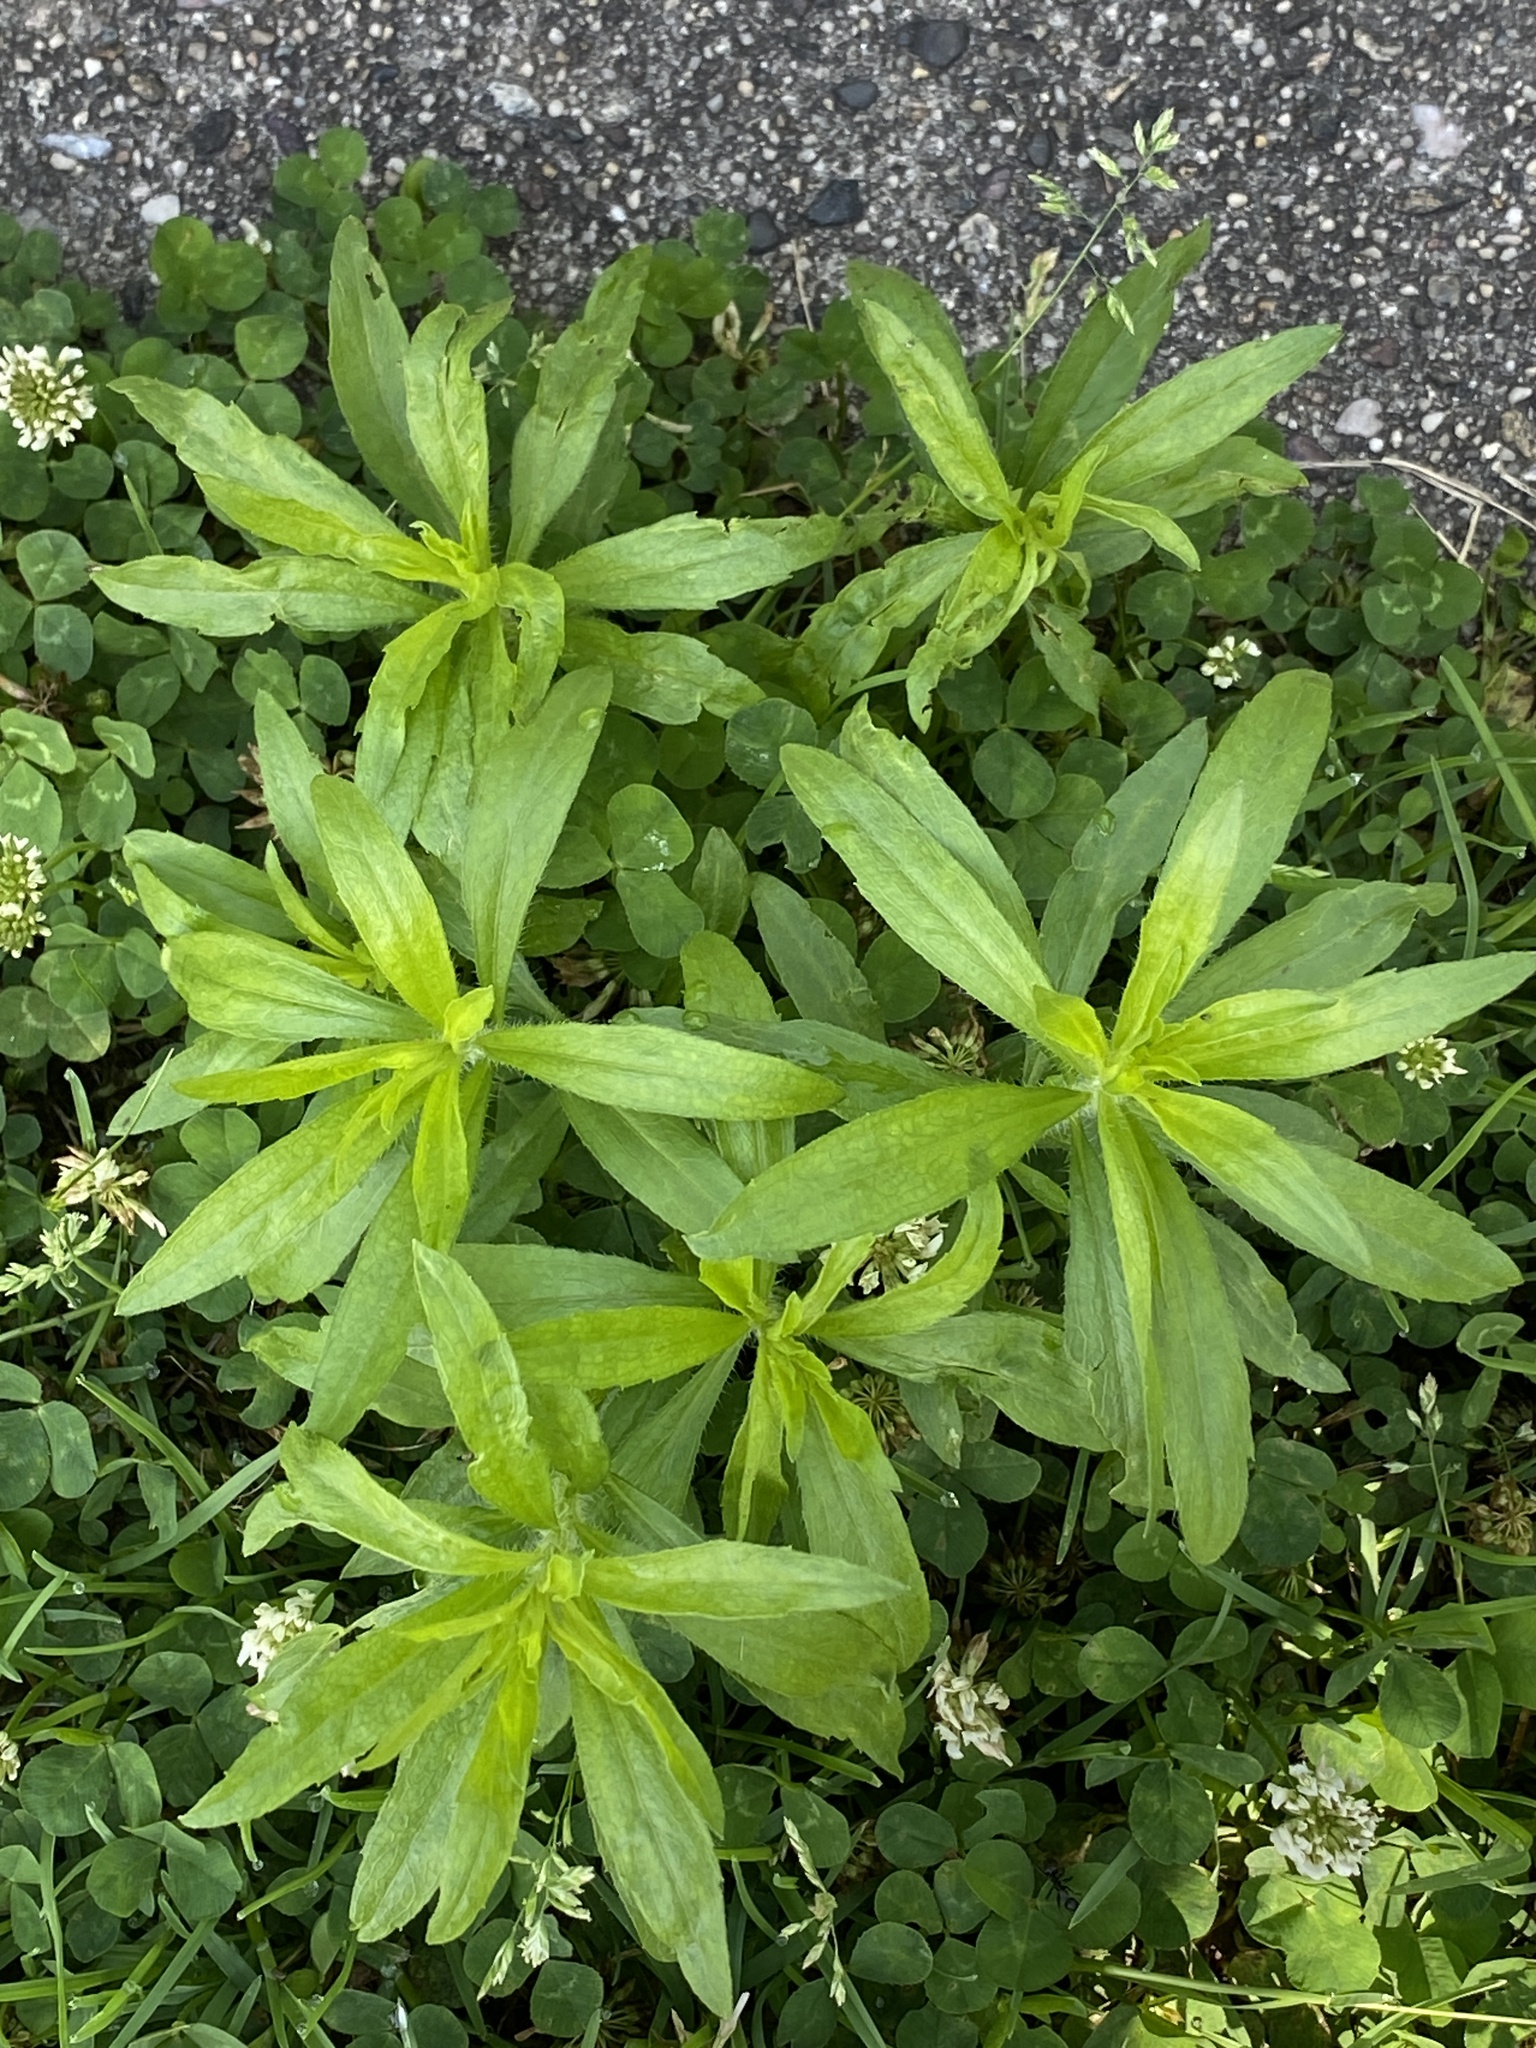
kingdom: Plantae
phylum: Tracheophyta
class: Magnoliopsida
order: Asterales
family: Asteraceae
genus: Erigeron
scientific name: Erigeron canadensis
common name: Canadian fleabane
